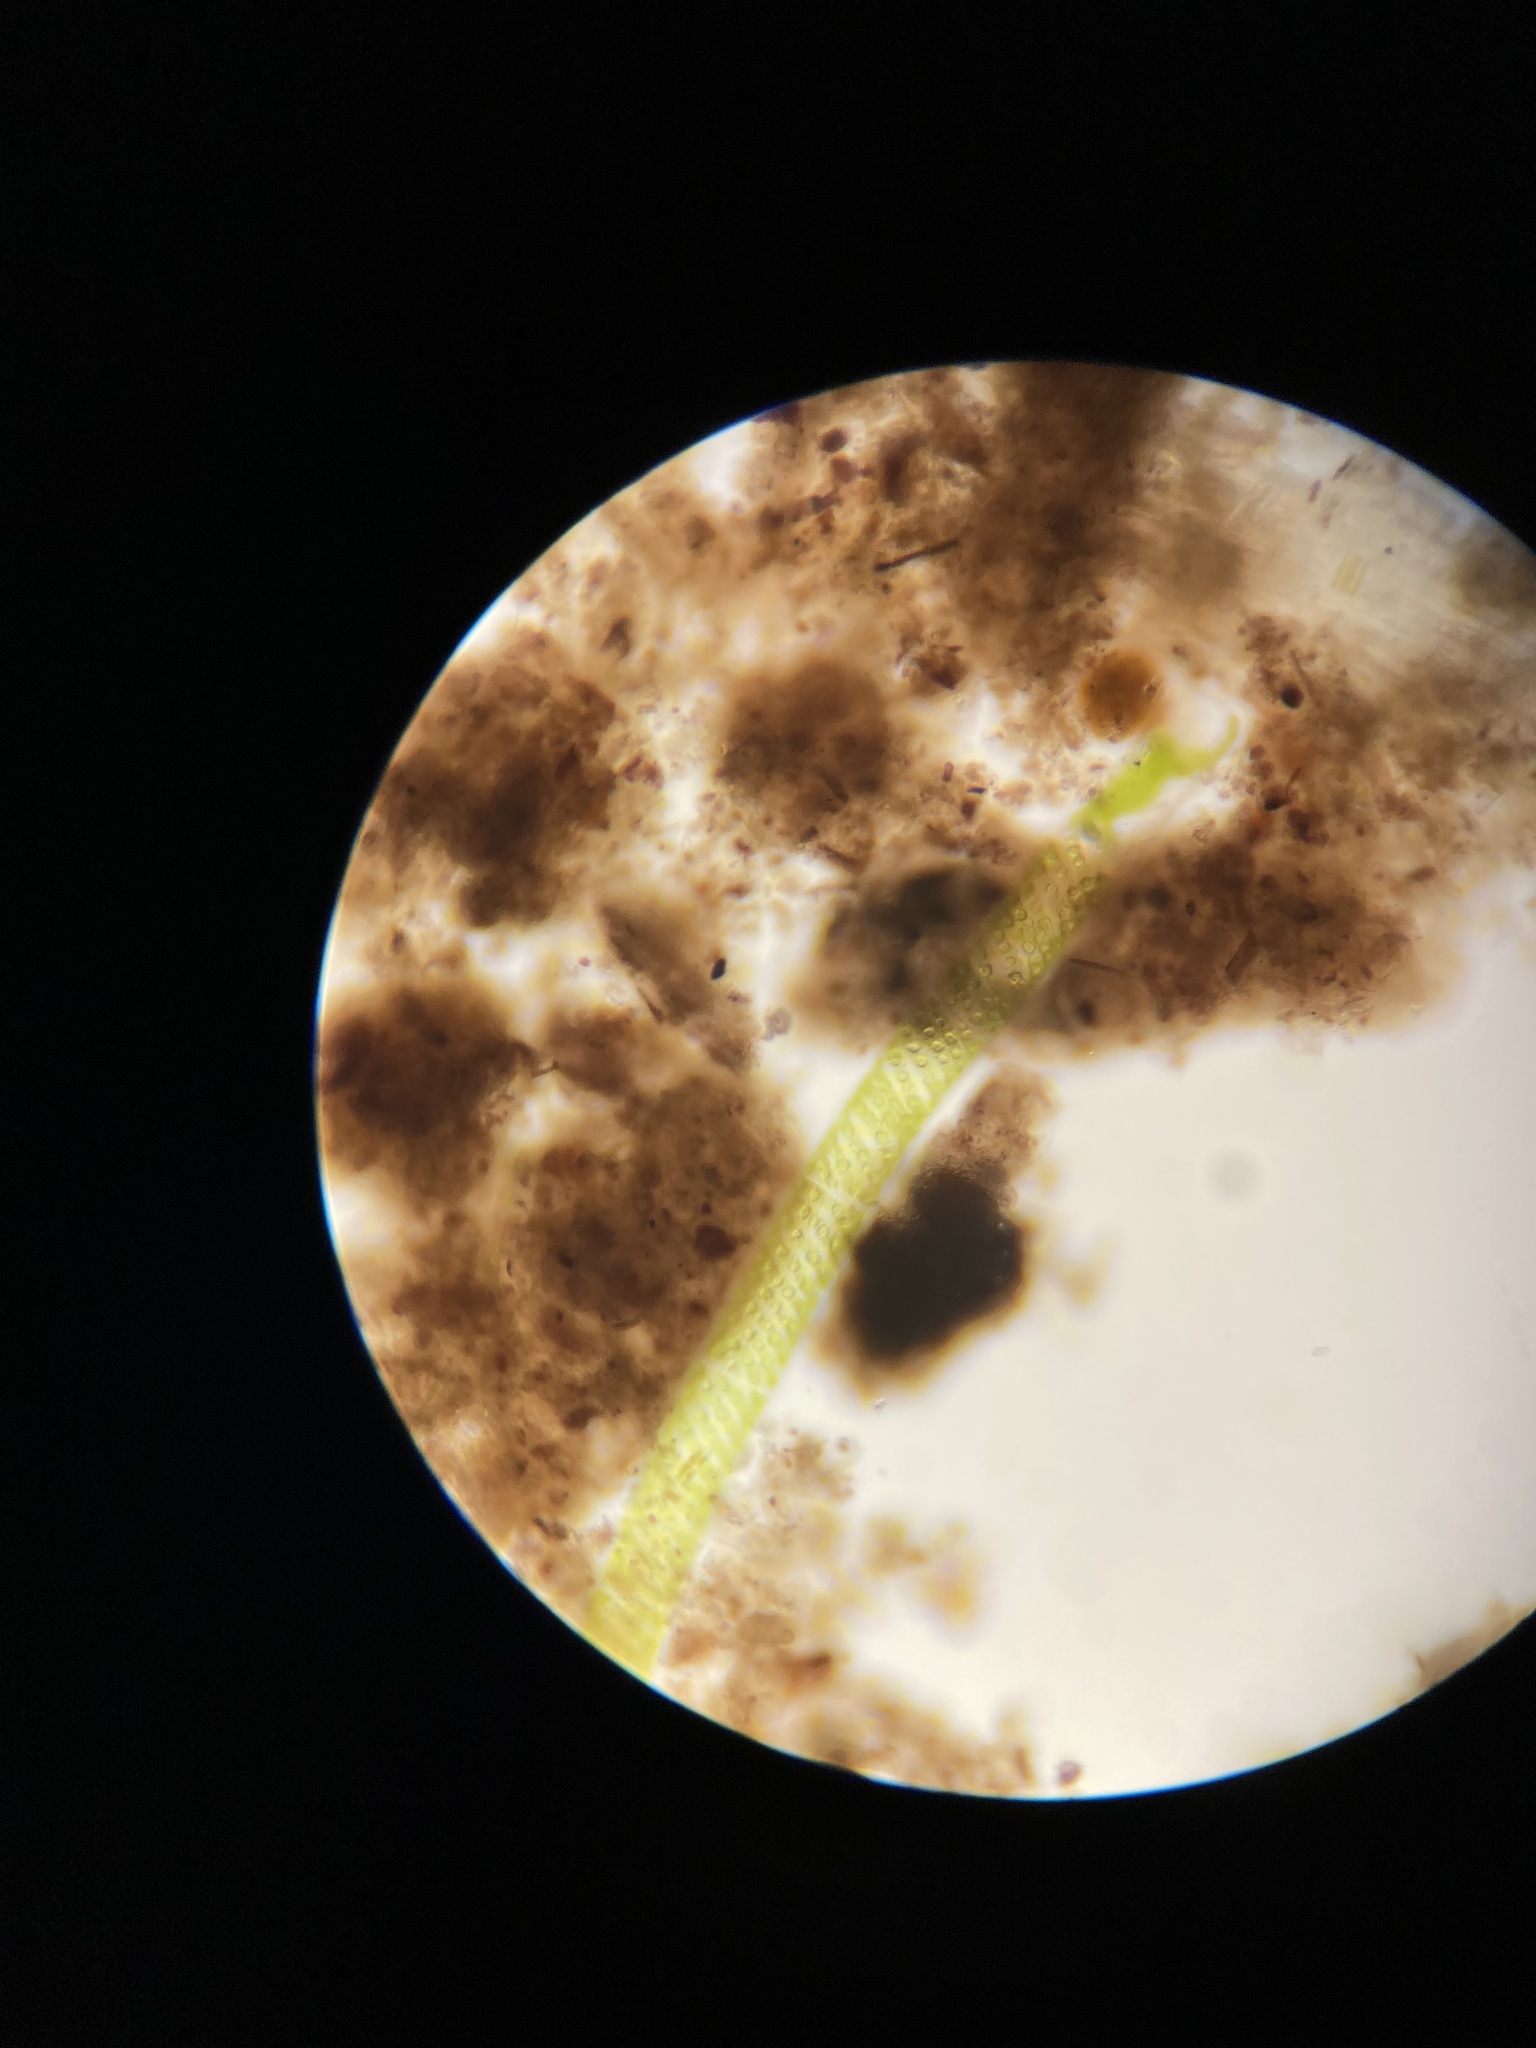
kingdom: Plantae
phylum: Charophyta
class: Zygnematophyceae
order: Zygnematales
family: Zygnemataceae
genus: Spirogyra
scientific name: Spirogyra
